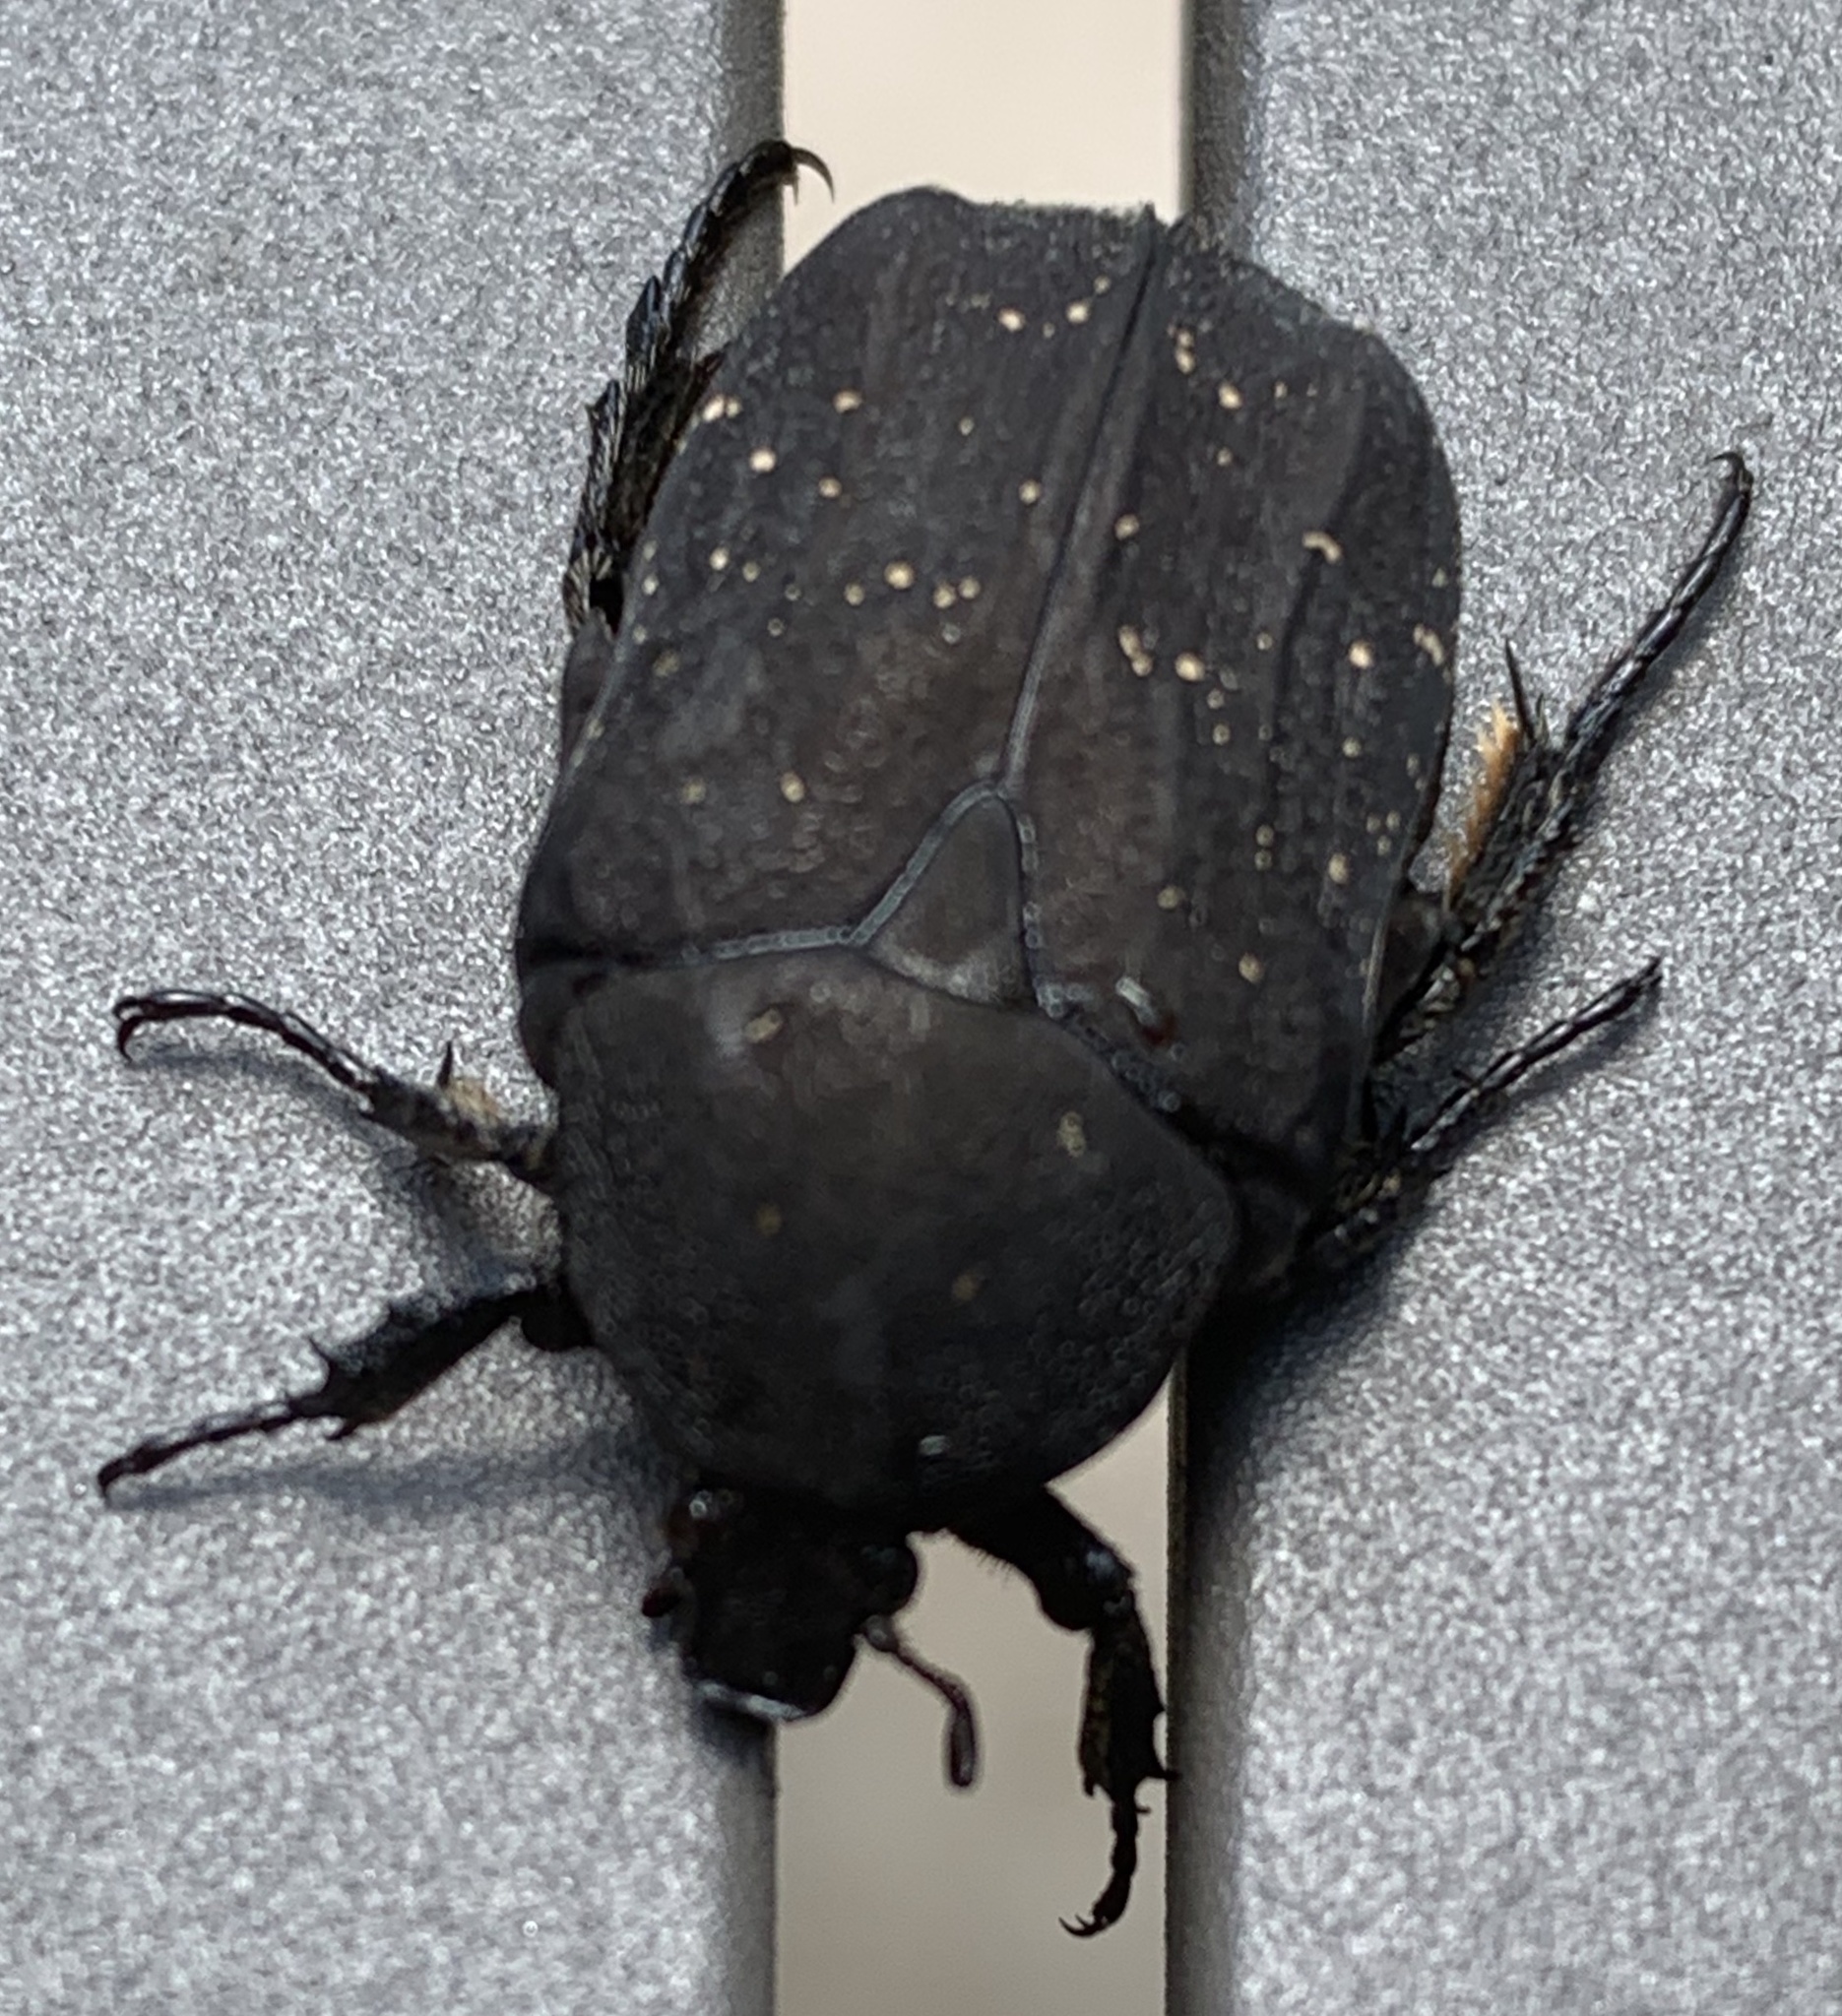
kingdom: Animalia
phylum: Arthropoda
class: Insecta
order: Coleoptera
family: Scarabaeidae
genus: Protaetia
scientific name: Protaetia morio
